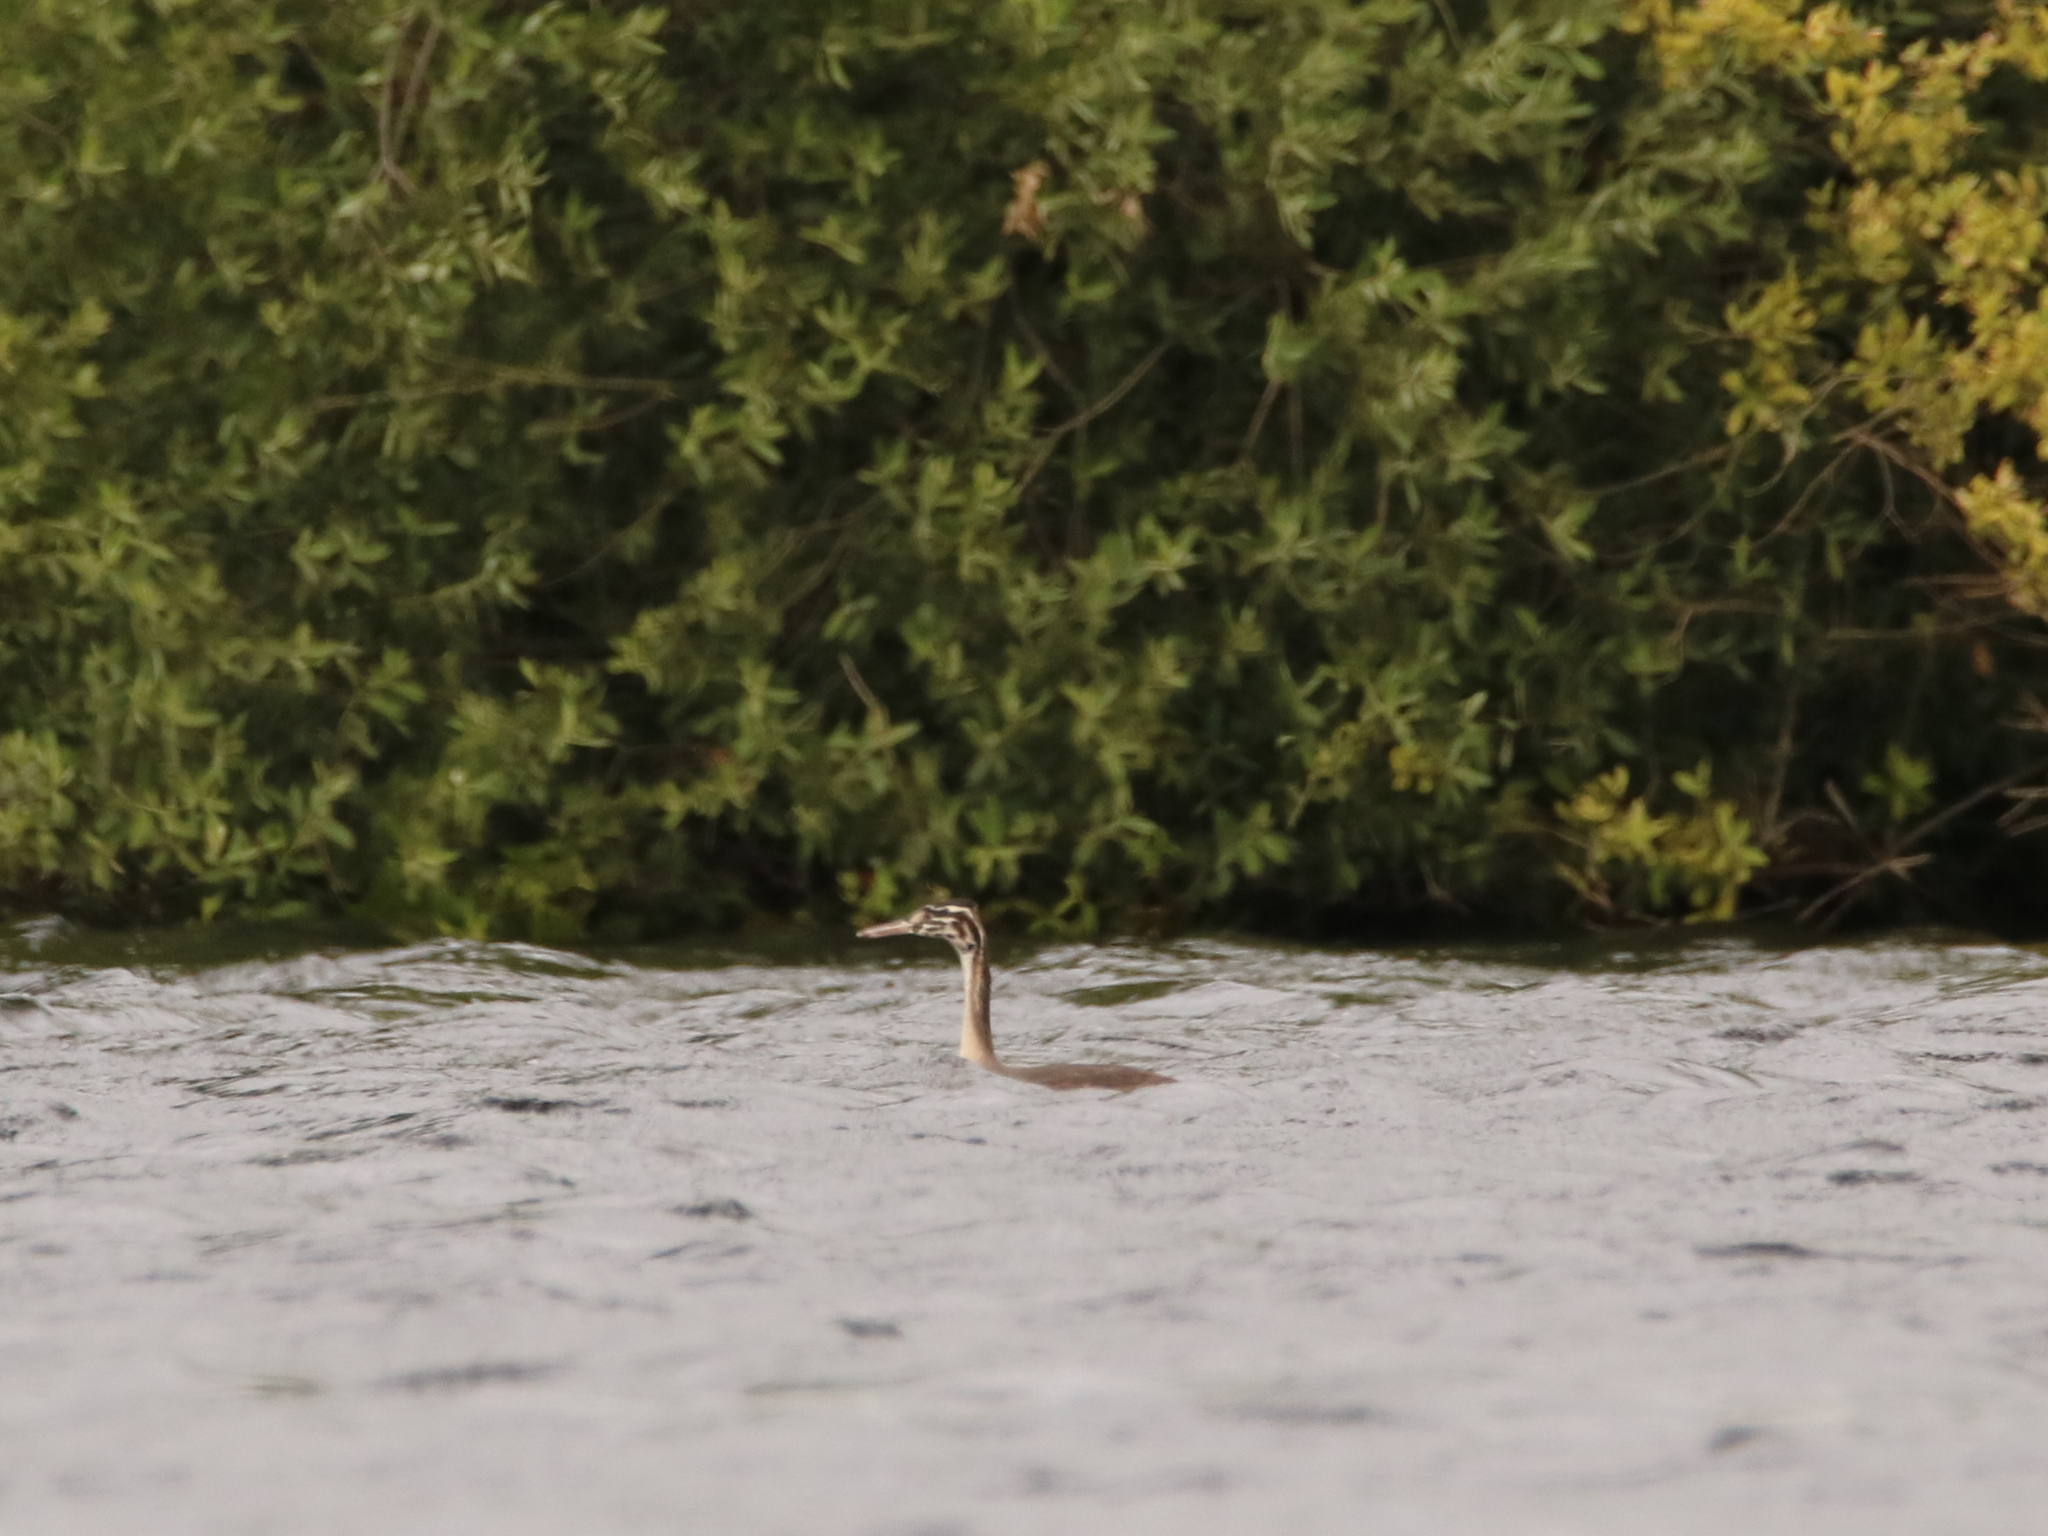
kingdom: Animalia
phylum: Chordata
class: Aves
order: Charadriiformes
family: Laridae
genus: Chroicocephalus
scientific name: Chroicocephalus ridibundus
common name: Black-headed gull
